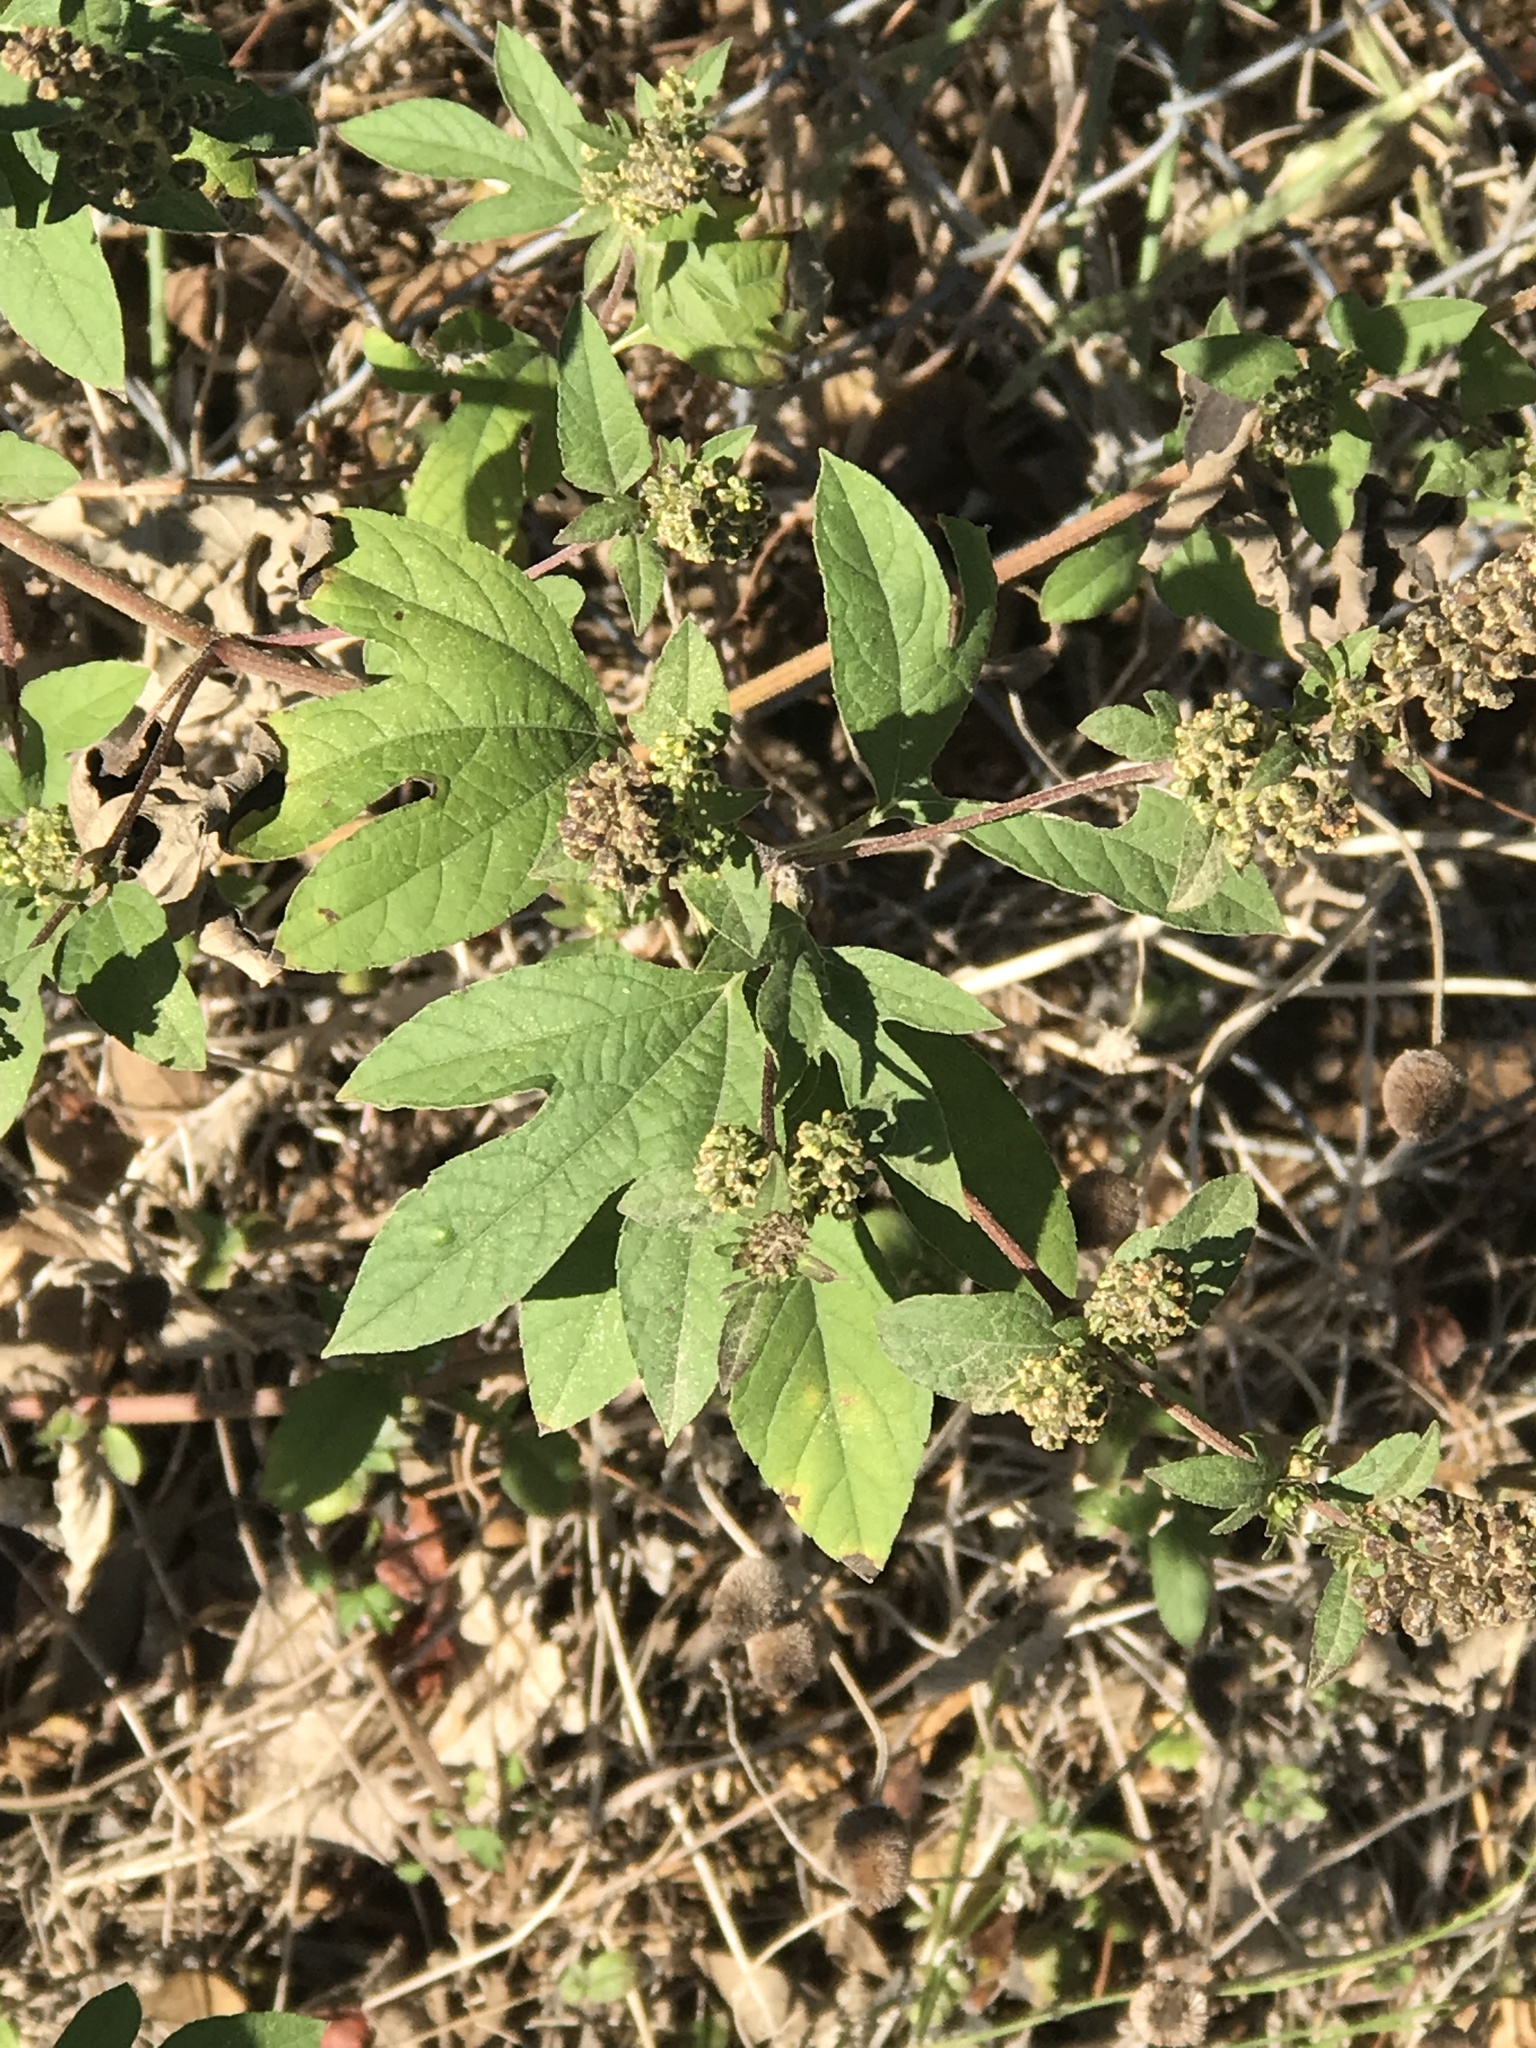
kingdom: Plantae
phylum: Tracheophyta
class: Magnoliopsida
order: Asterales
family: Asteraceae
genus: Ambrosia
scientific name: Ambrosia trifida
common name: Giant ragweed
